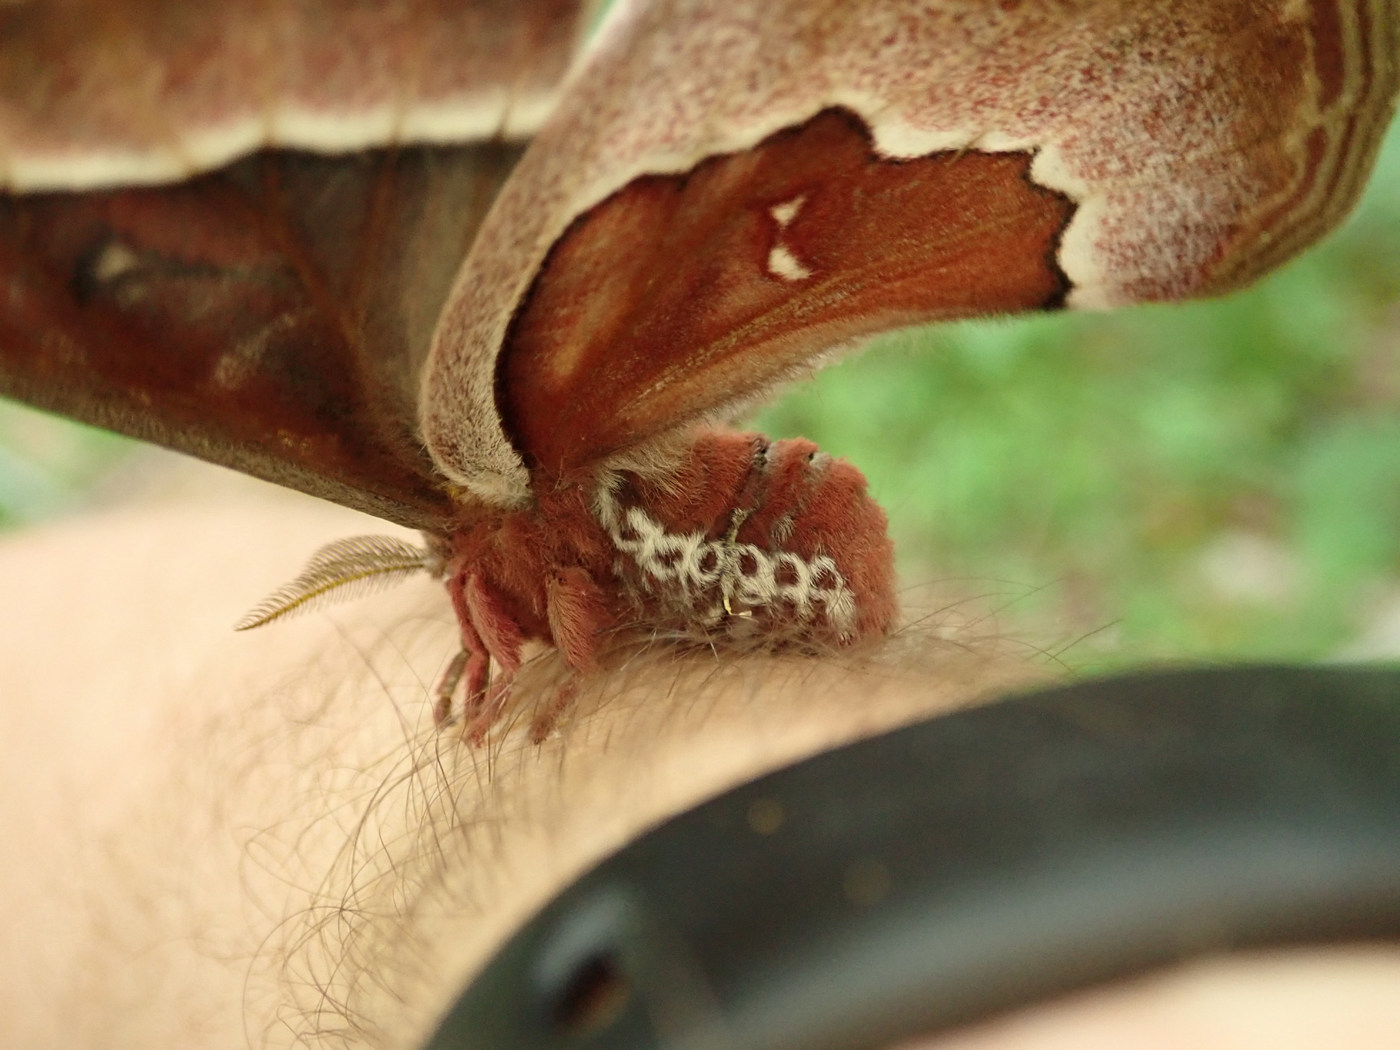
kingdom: Animalia
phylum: Arthropoda
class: Insecta
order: Lepidoptera
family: Saturniidae
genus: Callosamia
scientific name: Callosamia promethea
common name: Promethea silkmoth
